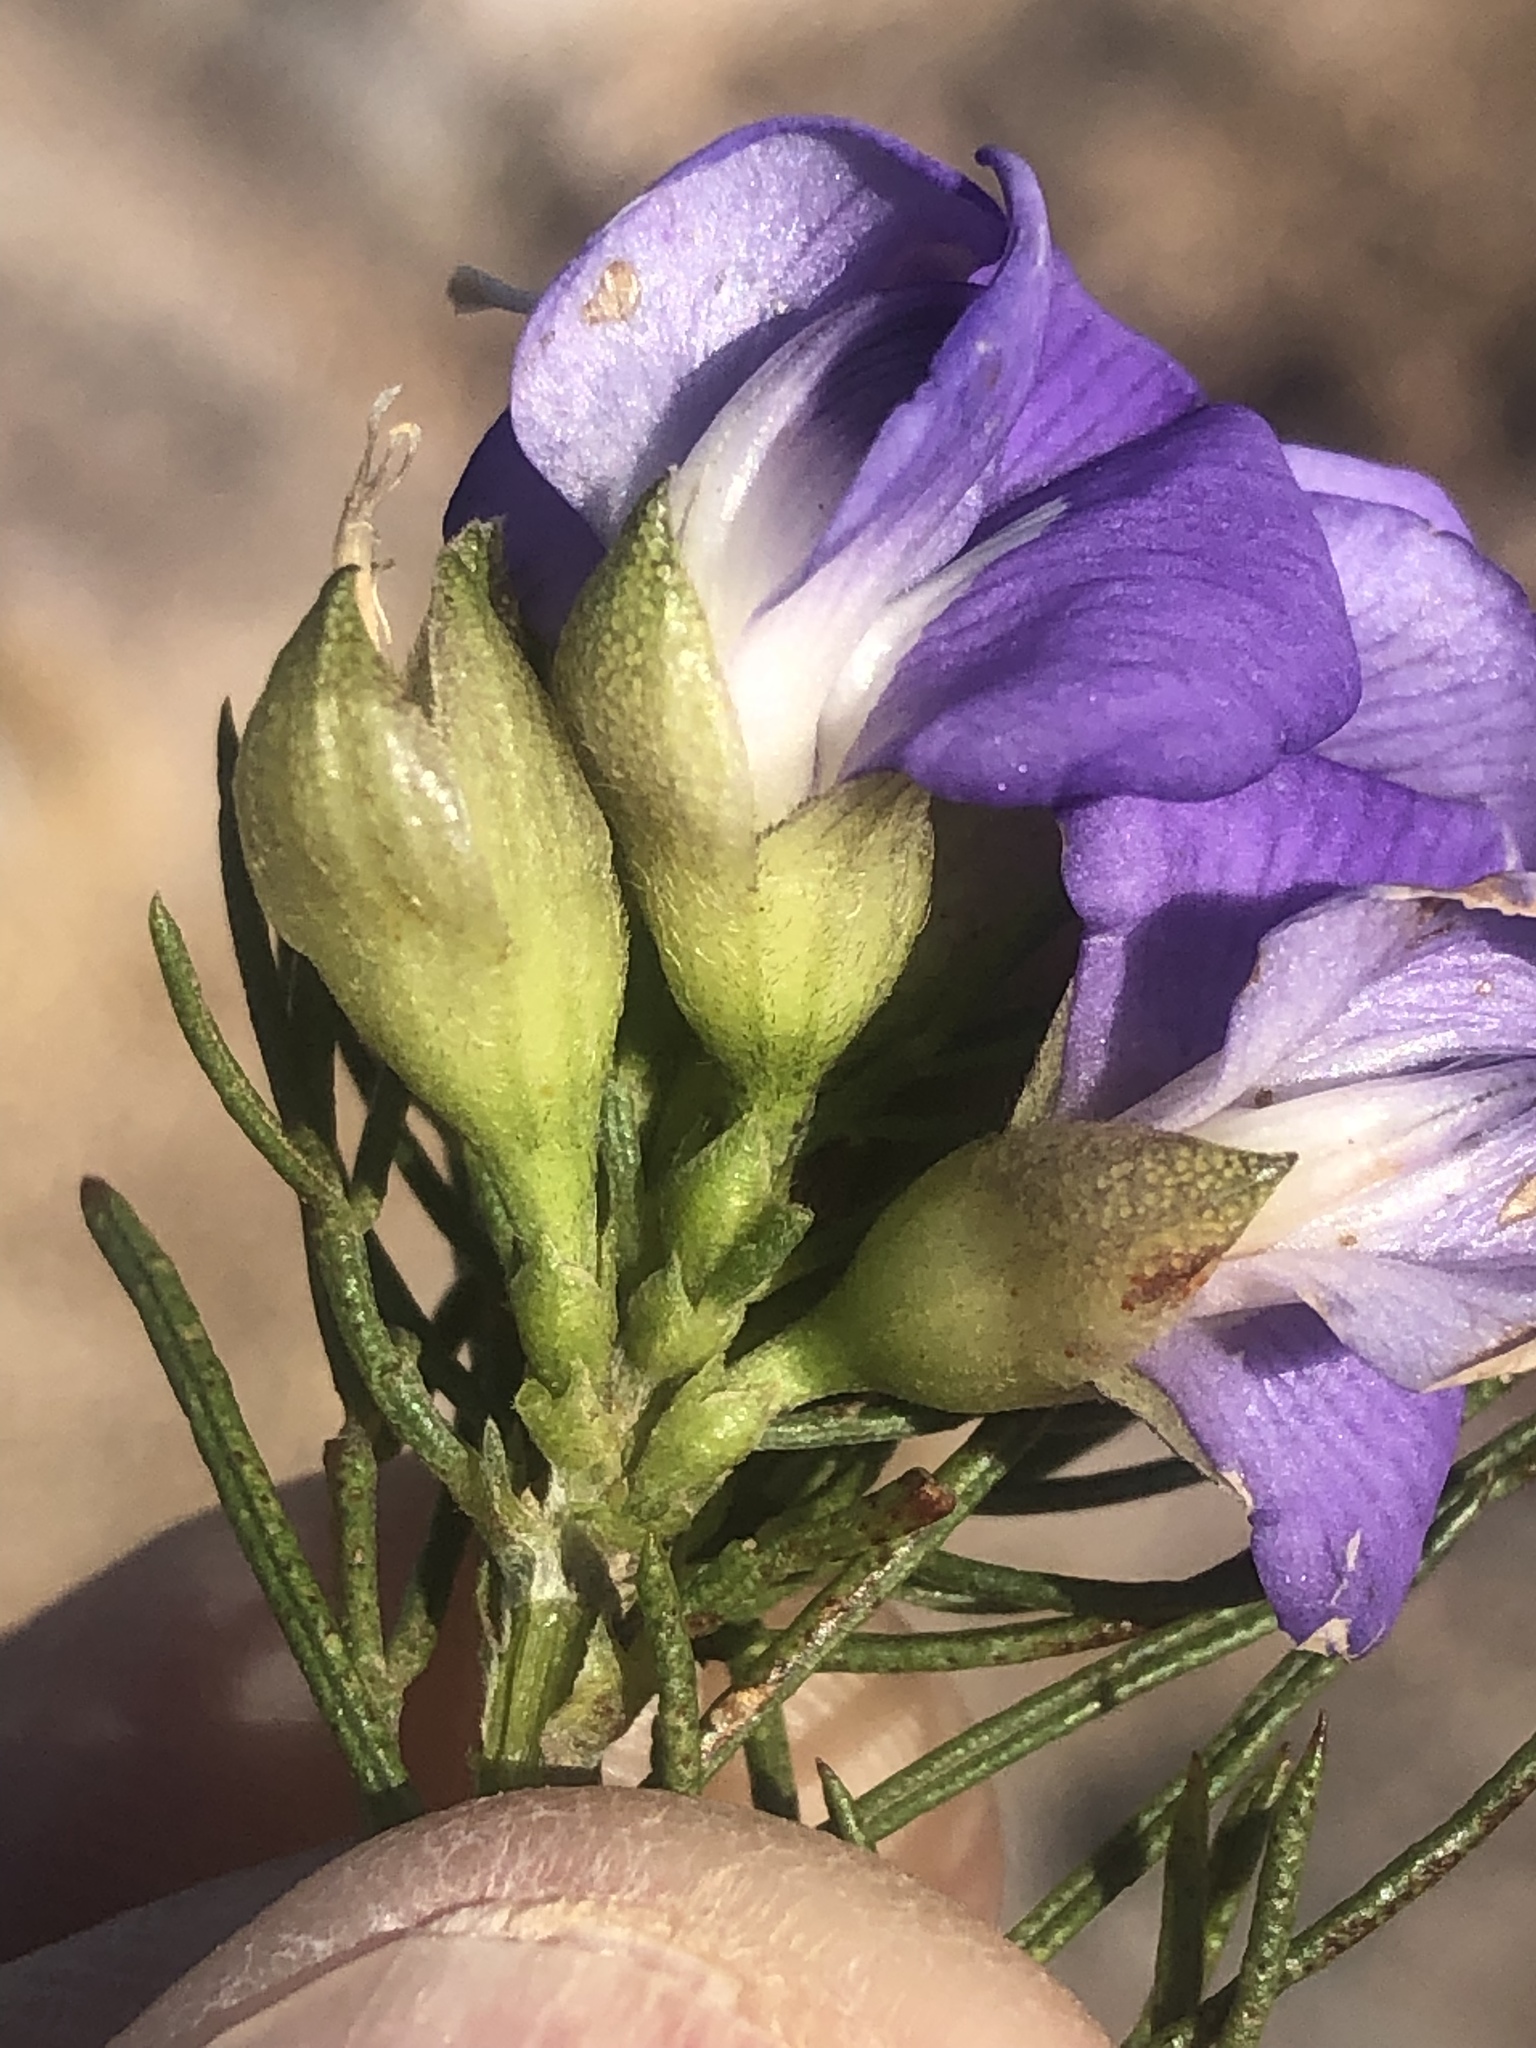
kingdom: Plantae
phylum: Tracheophyta
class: Magnoliopsida
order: Fabales
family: Fabaceae
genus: Psoralea
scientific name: Psoralea speciosa
